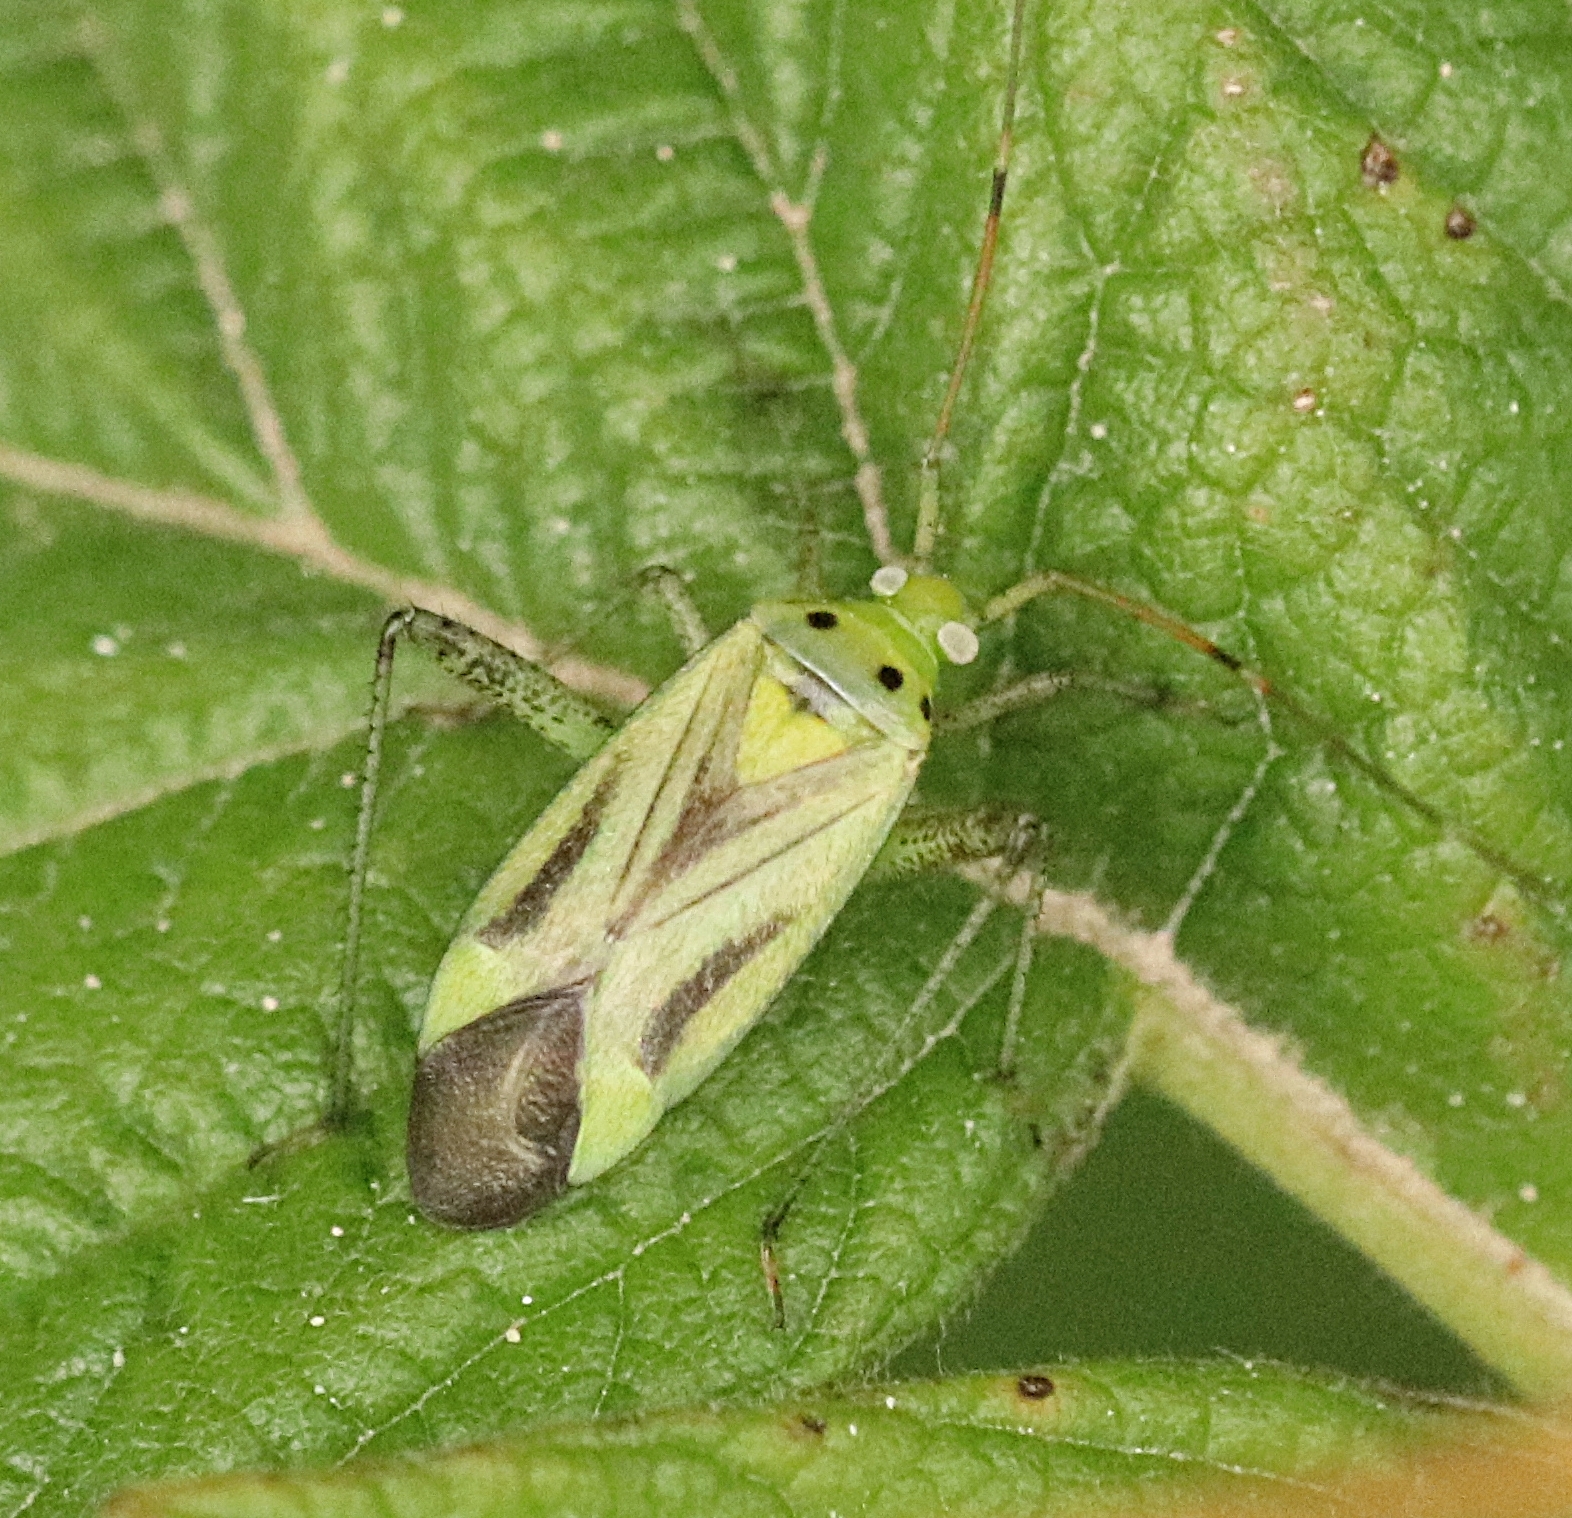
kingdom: Animalia
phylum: Arthropoda
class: Insecta
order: Hemiptera
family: Miridae
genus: Adelphocoris
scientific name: Adelphocoris lineolatus
